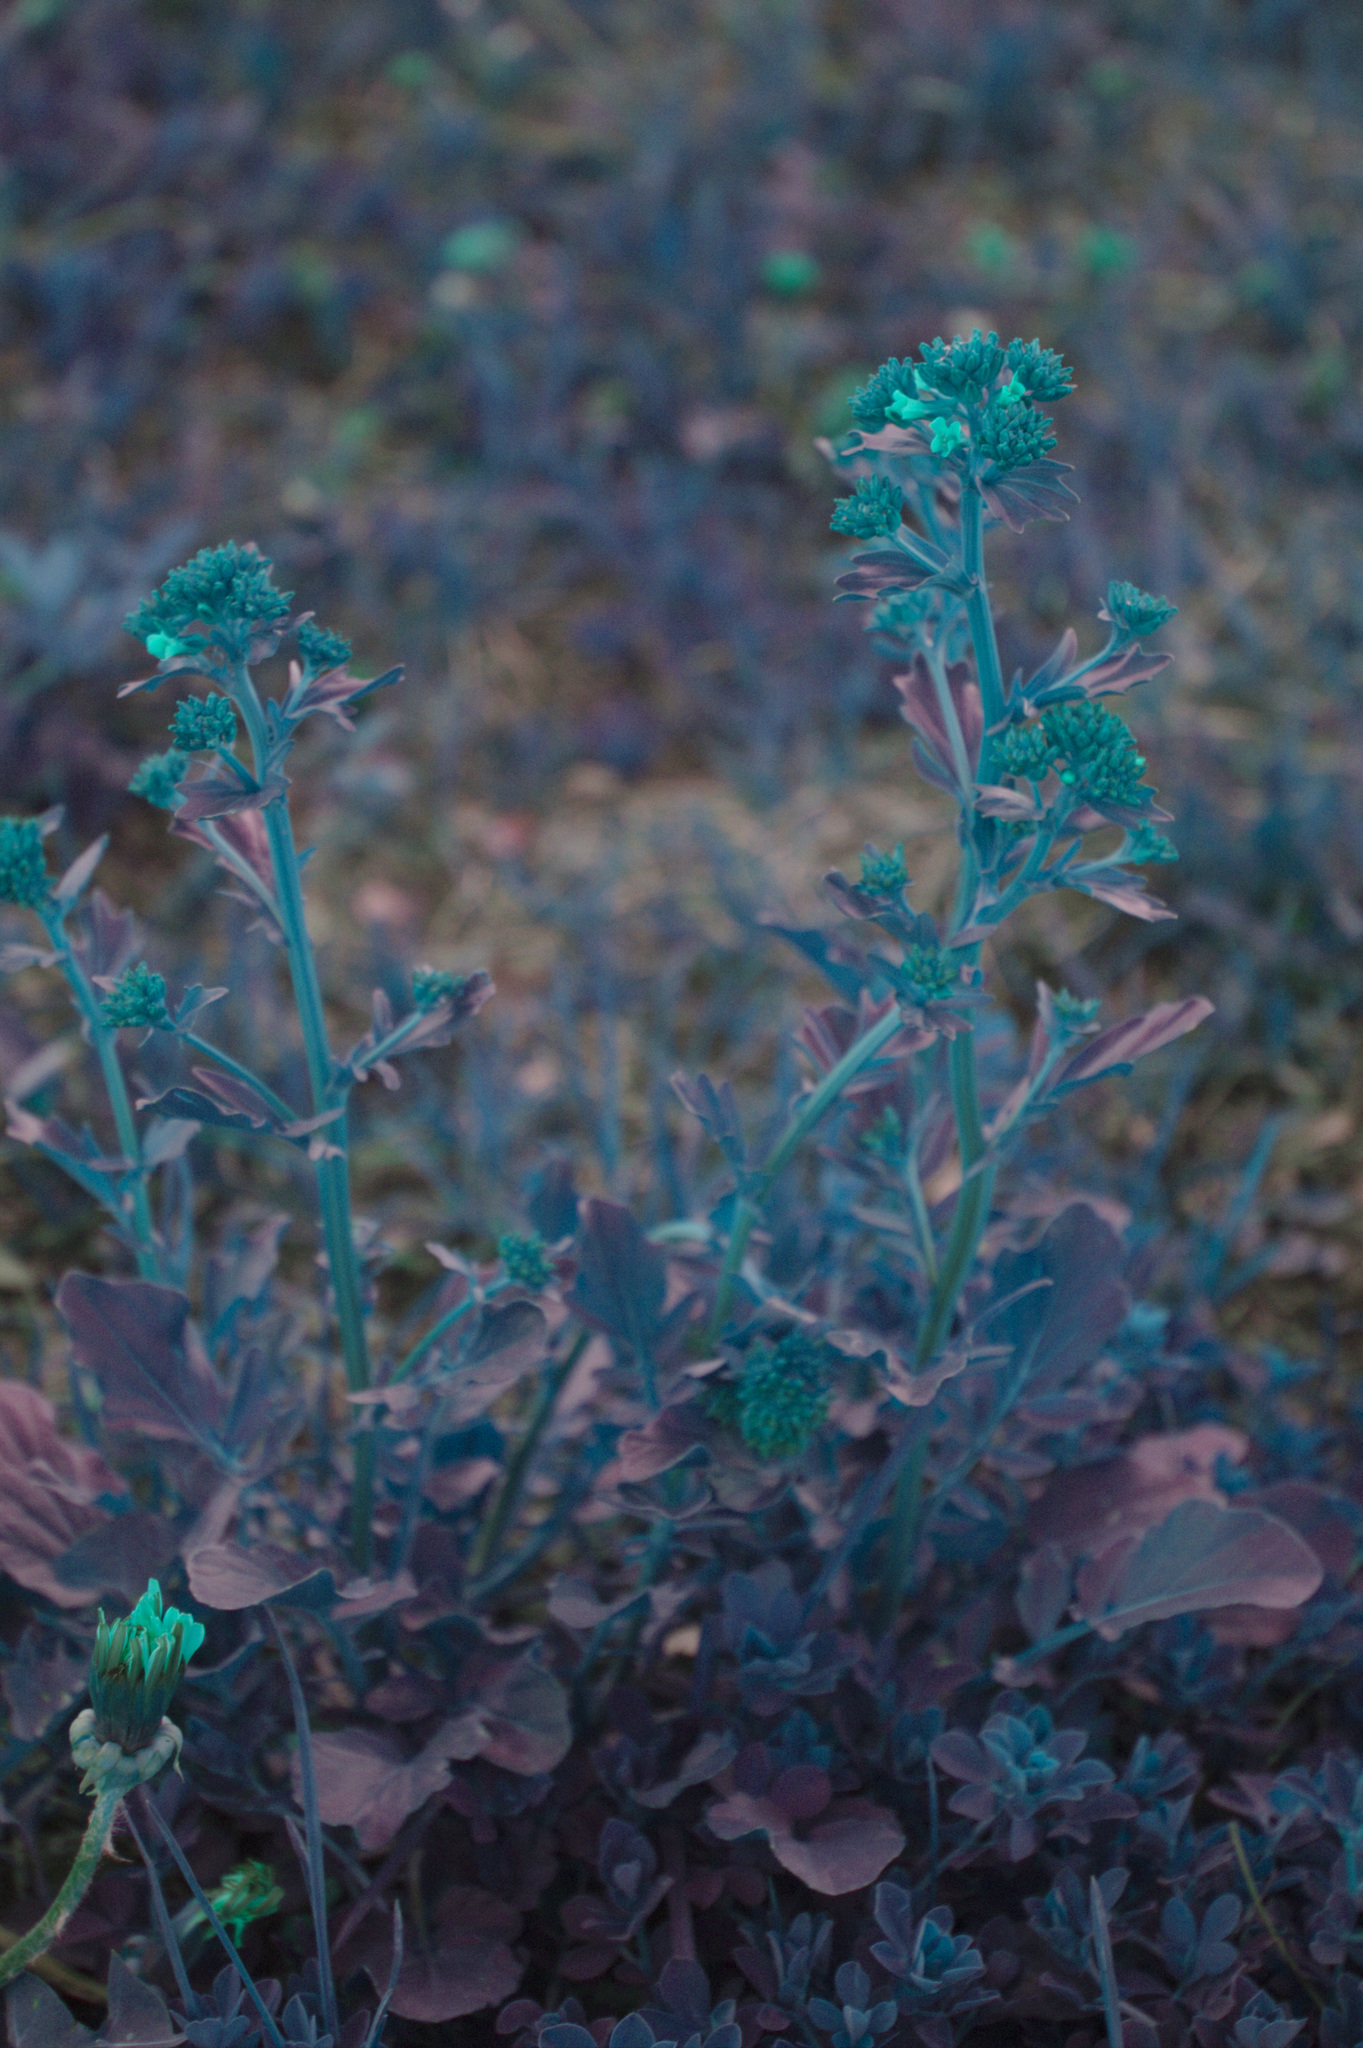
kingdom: Plantae
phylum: Tracheophyta
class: Magnoliopsida
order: Brassicales
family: Brassicaceae
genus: Barbarea
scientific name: Barbarea vulgaris
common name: Cressy-greens
